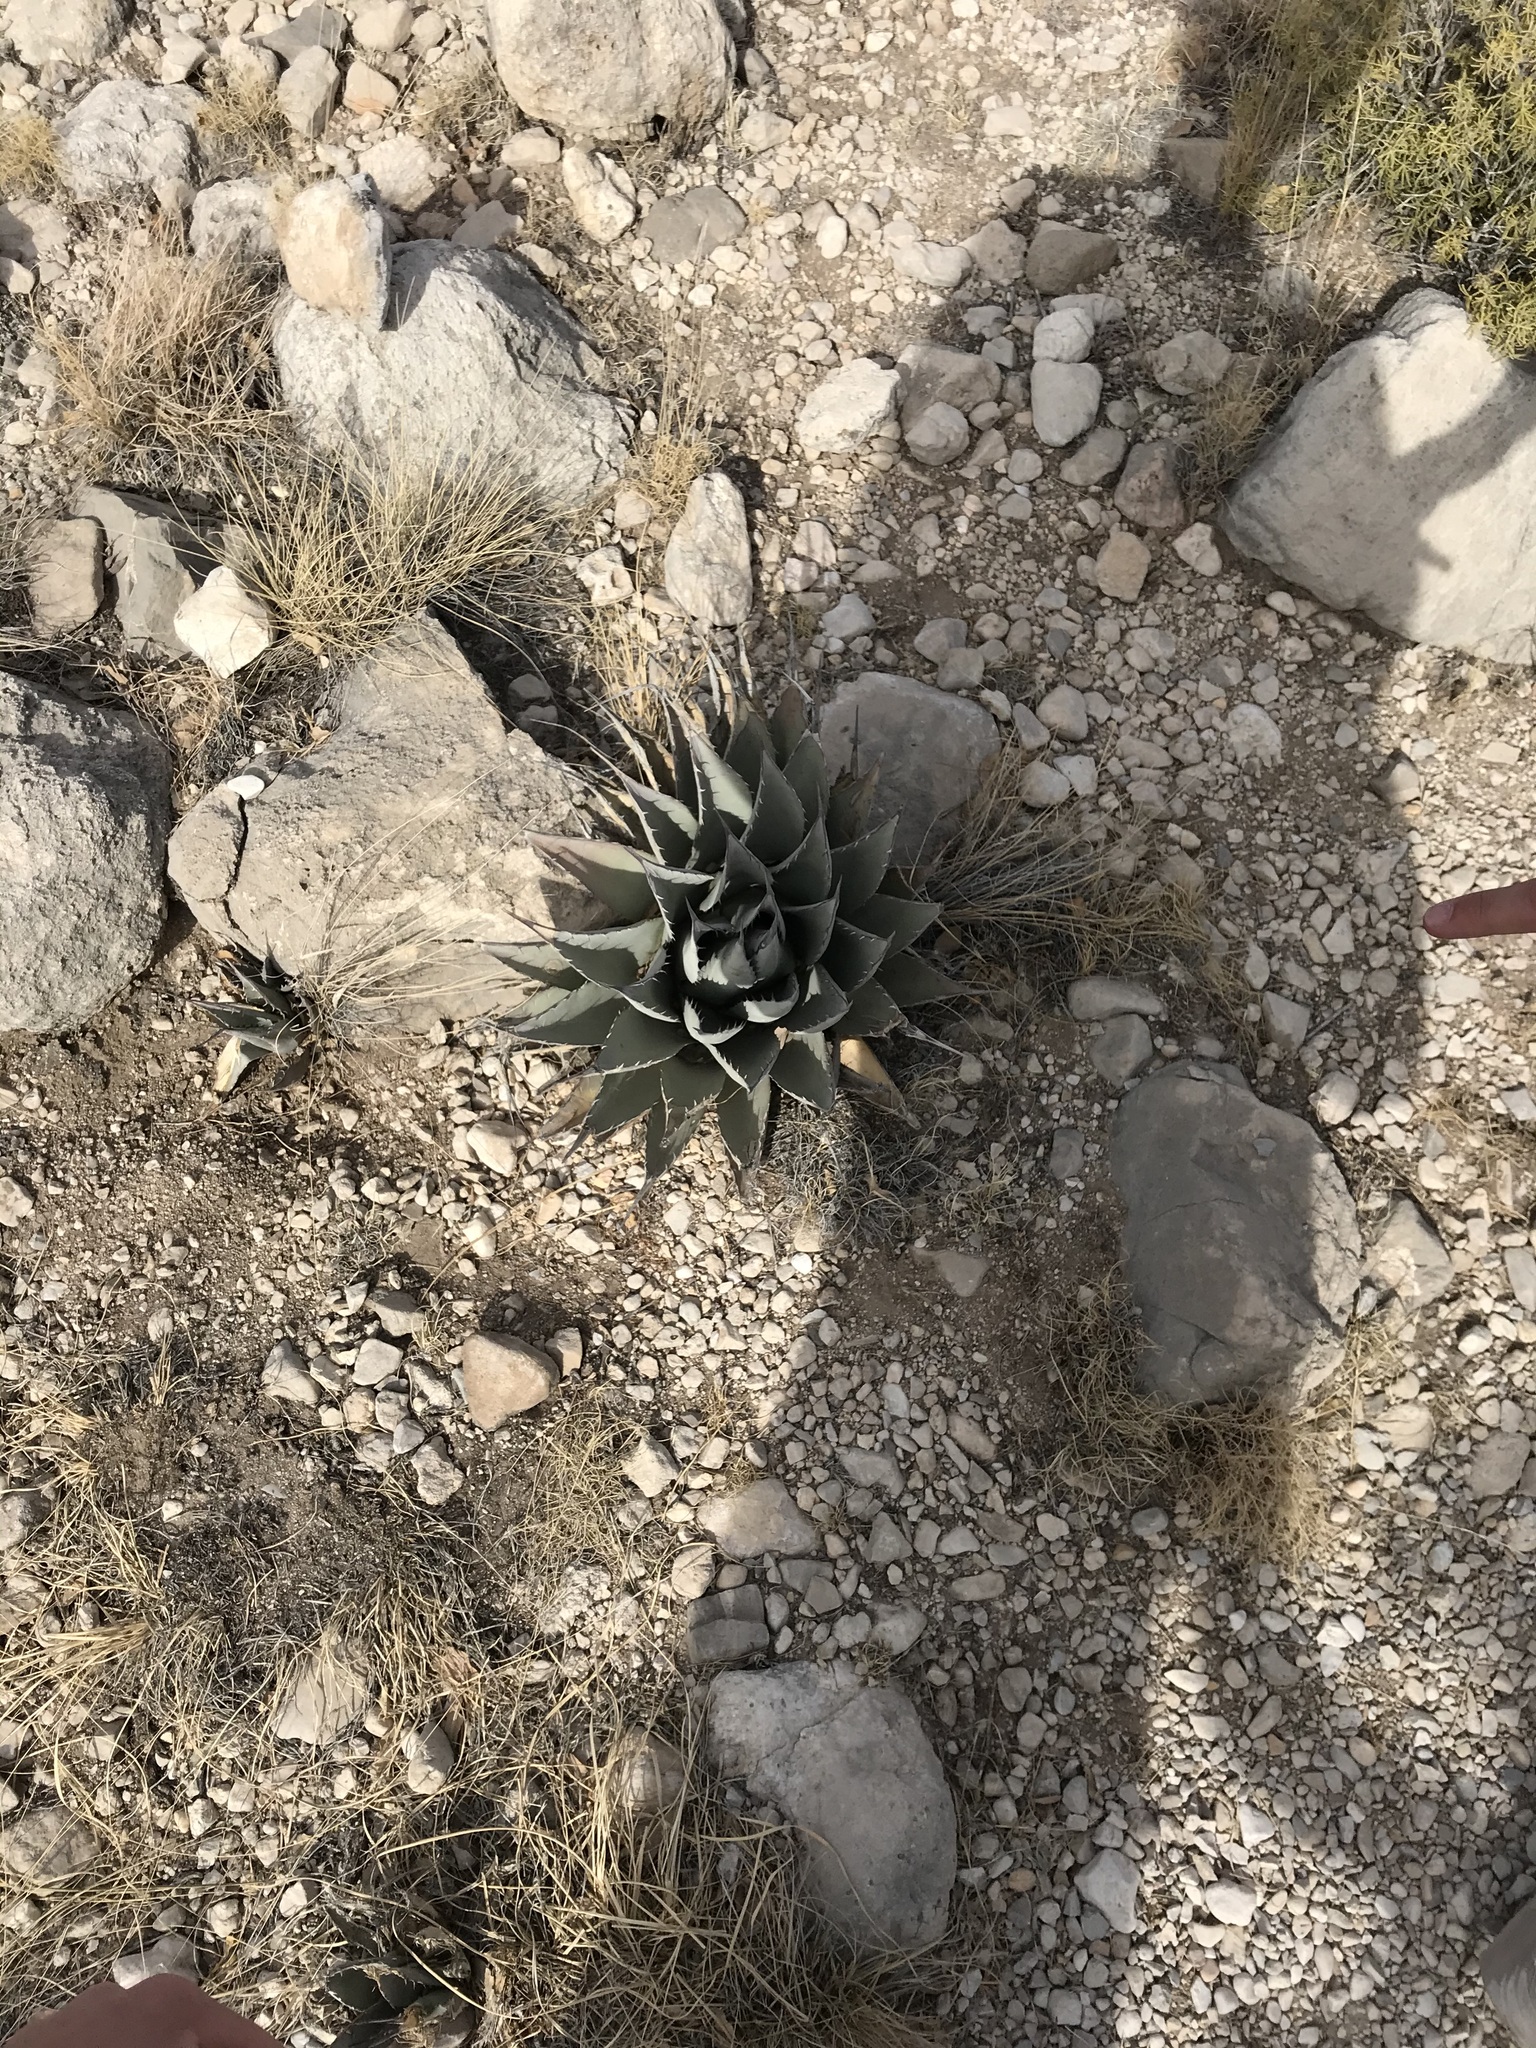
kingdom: Plantae
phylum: Tracheophyta
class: Liliopsida
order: Asparagales
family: Asparagaceae
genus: Agave
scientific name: Agave parryi
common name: Parry's agave
